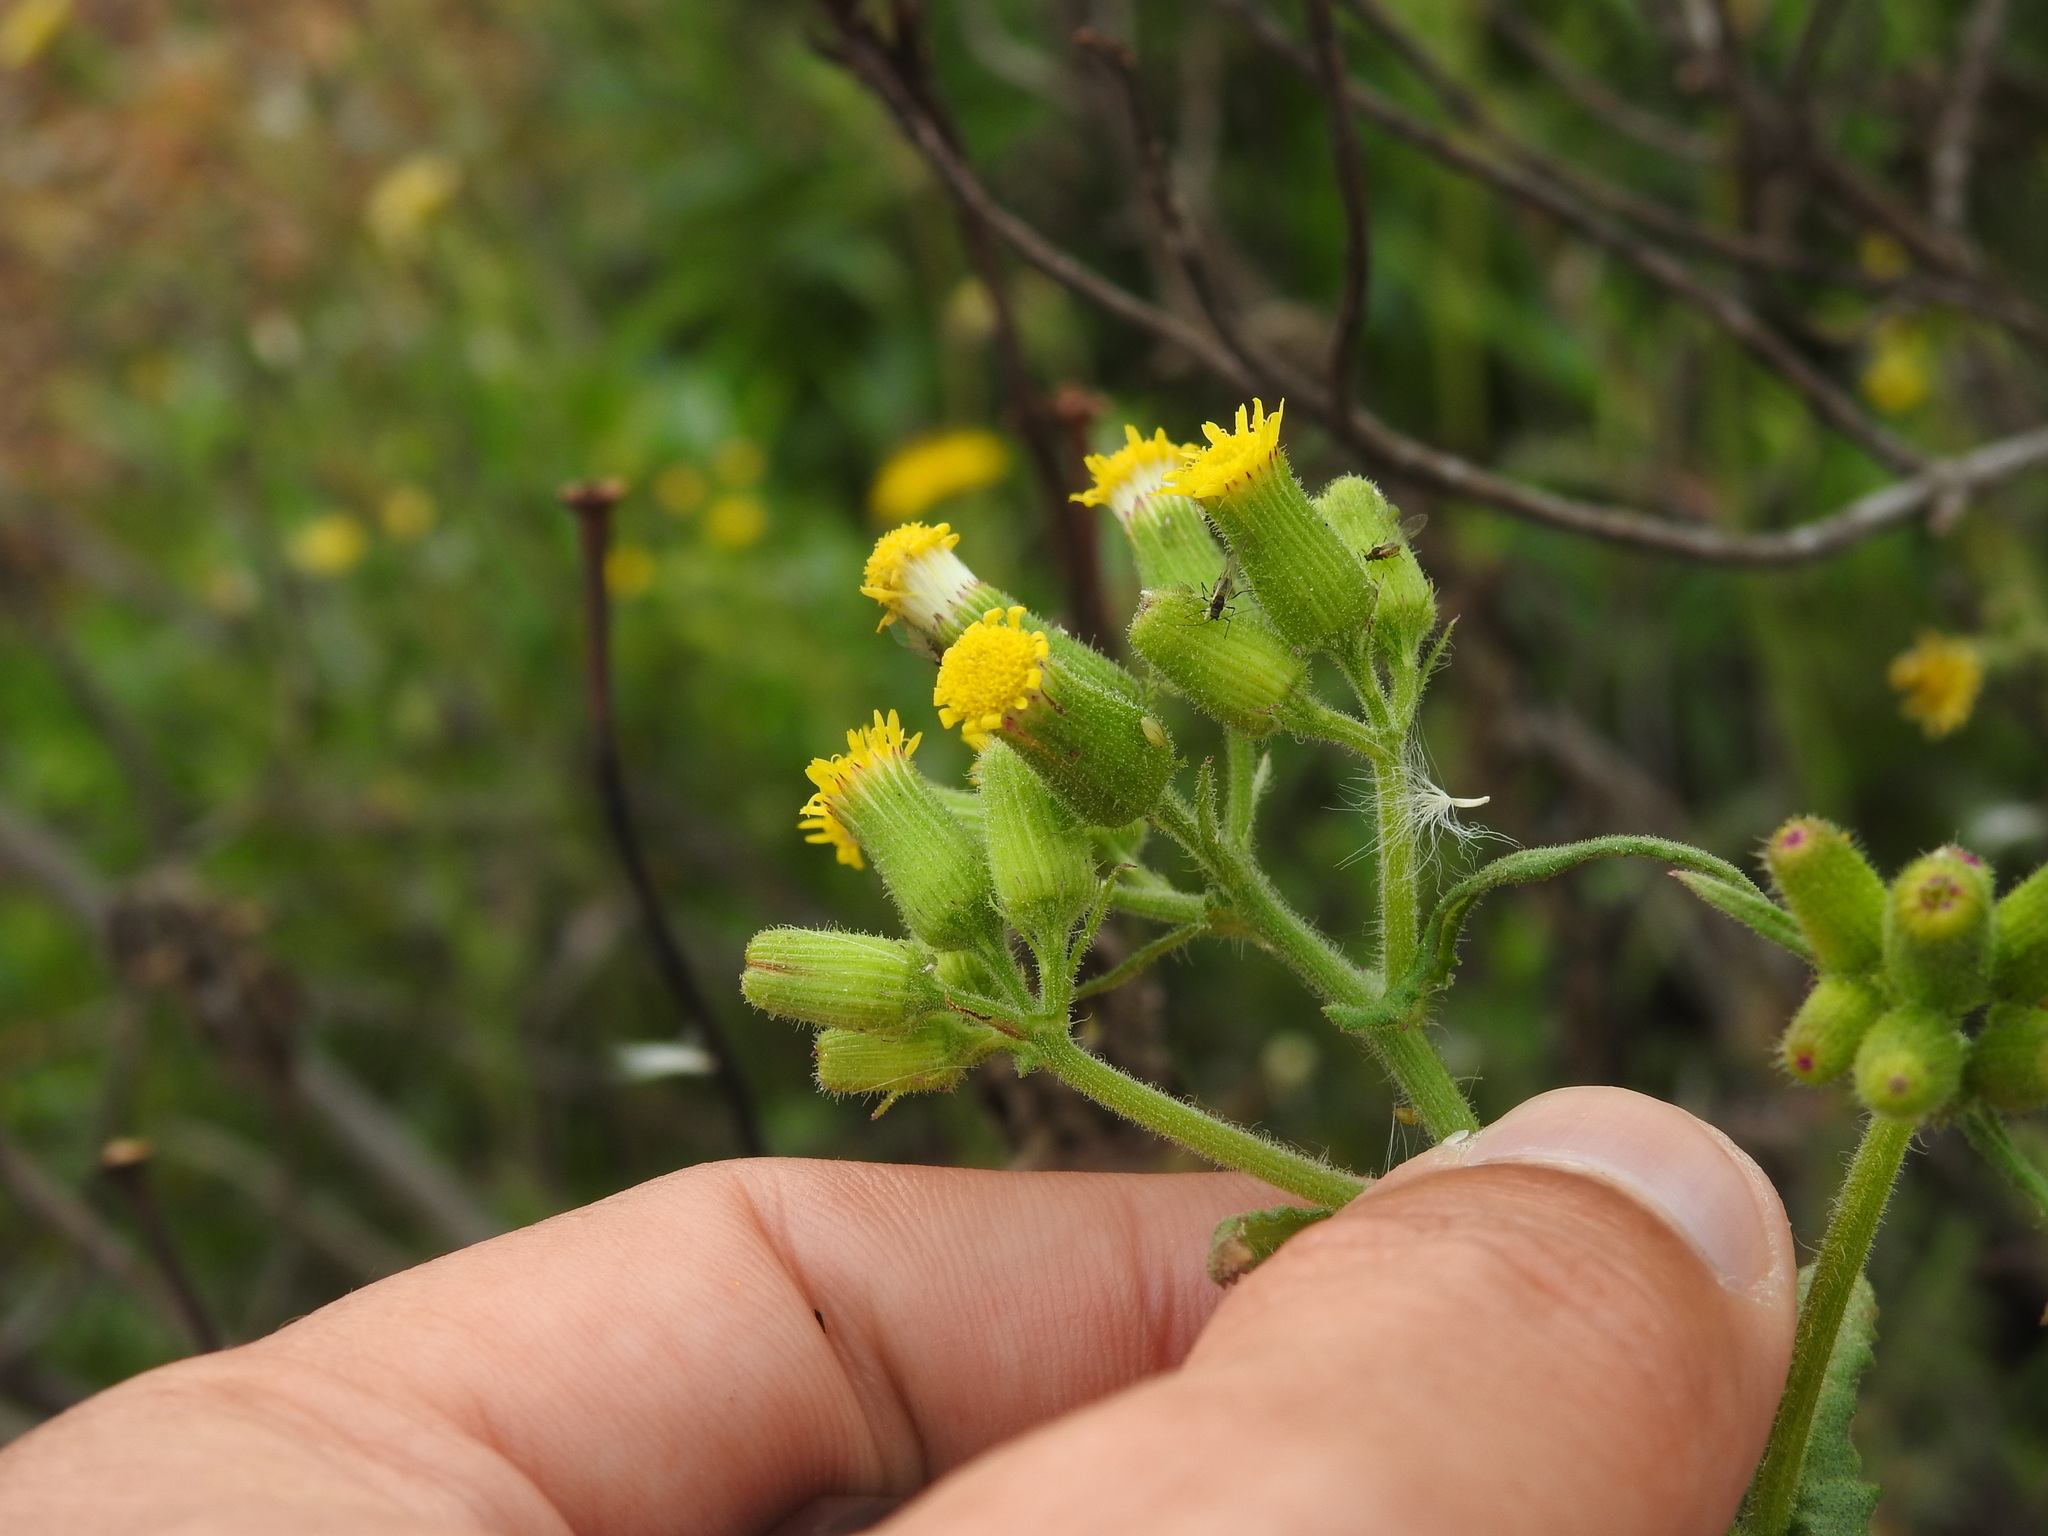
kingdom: Plantae
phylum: Tracheophyta
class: Magnoliopsida
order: Asterales
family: Asteraceae
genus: Senecio
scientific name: Senecio lividus
